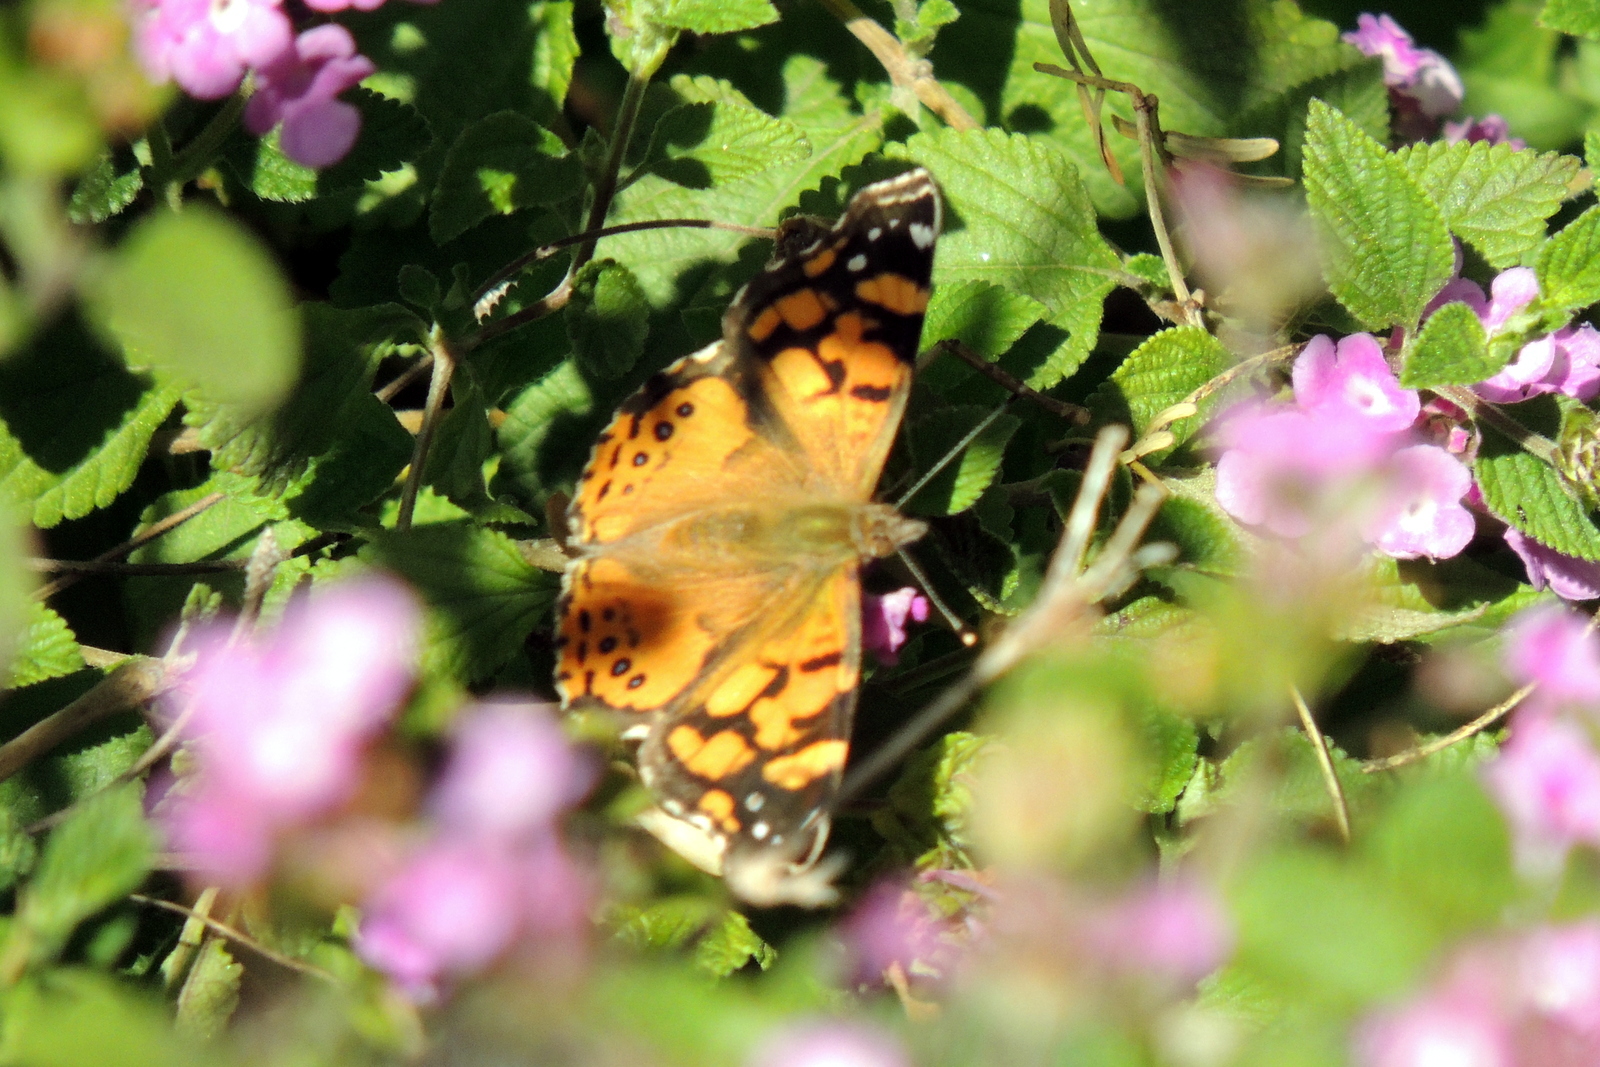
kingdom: Animalia
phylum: Arthropoda
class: Insecta
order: Lepidoptera
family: Nymphalidae
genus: Vanessa
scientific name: Vanessa annabella
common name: West coast lady
